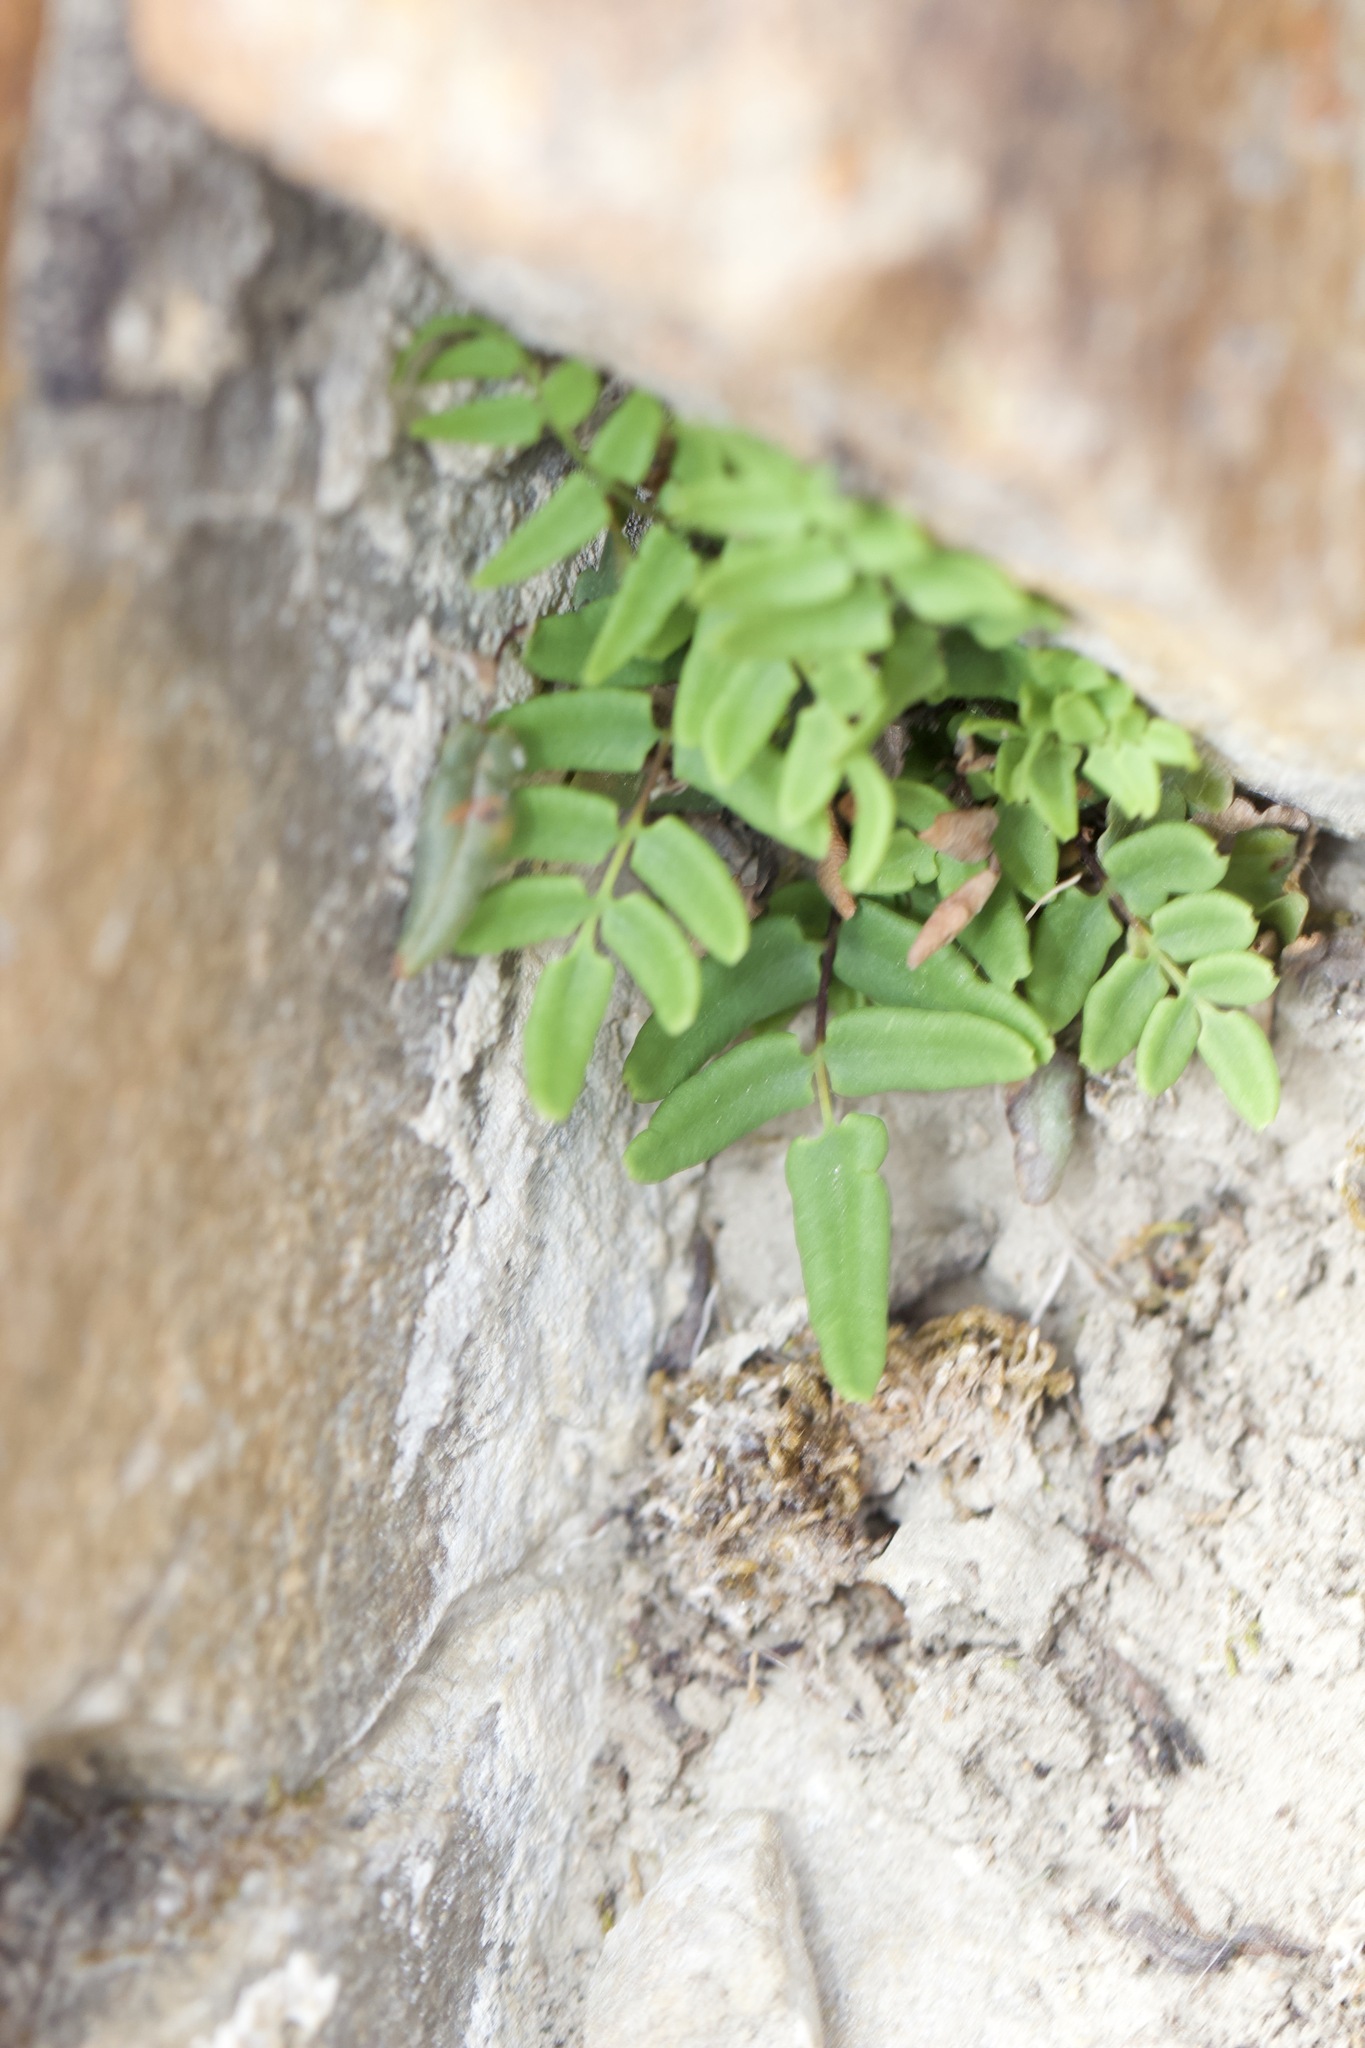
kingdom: Plantae
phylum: Tracheophyta
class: Polypodiopsida
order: Polypodiales
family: Pteridaceae
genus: Pellaea
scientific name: Pellaea glabella
